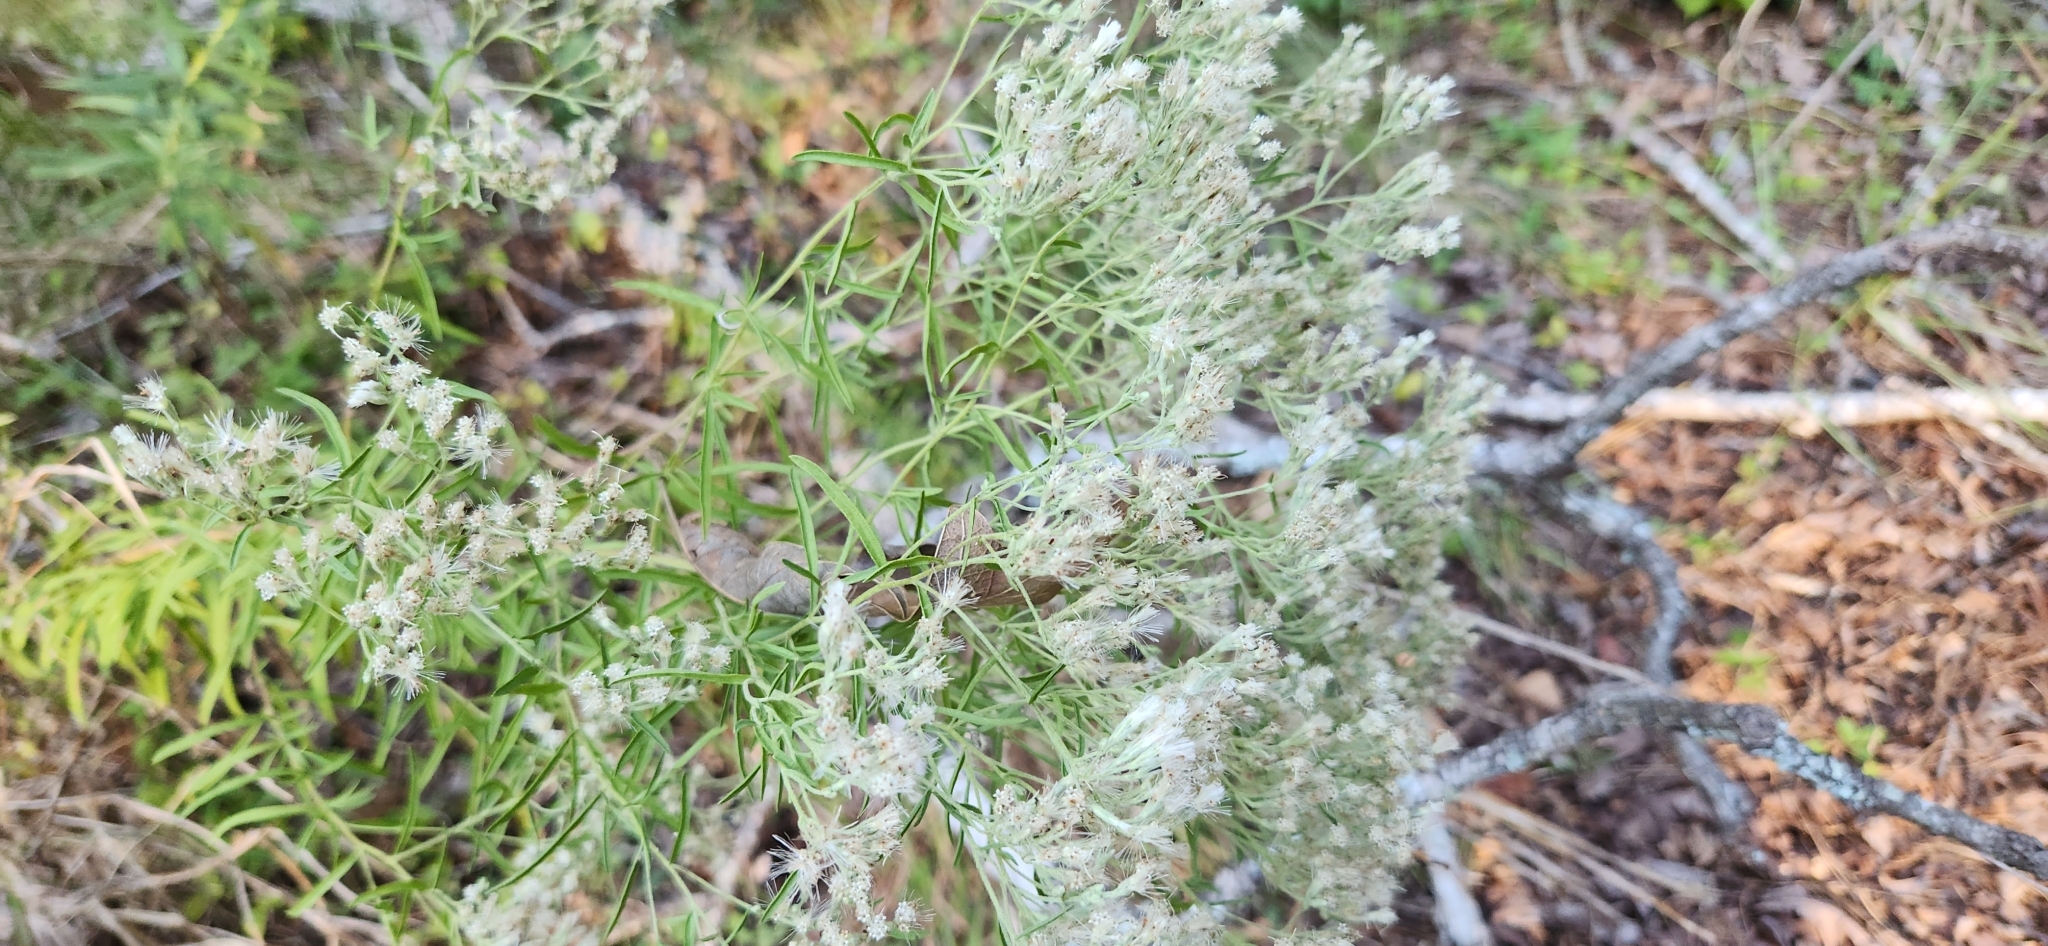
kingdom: Plantae
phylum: Tracheophyta
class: Magnoliopsida
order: Asterales
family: Asteraceae
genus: Eupatorium
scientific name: Eupatorium hyssopifolium
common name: Hyssop-leaf thoroughwort
